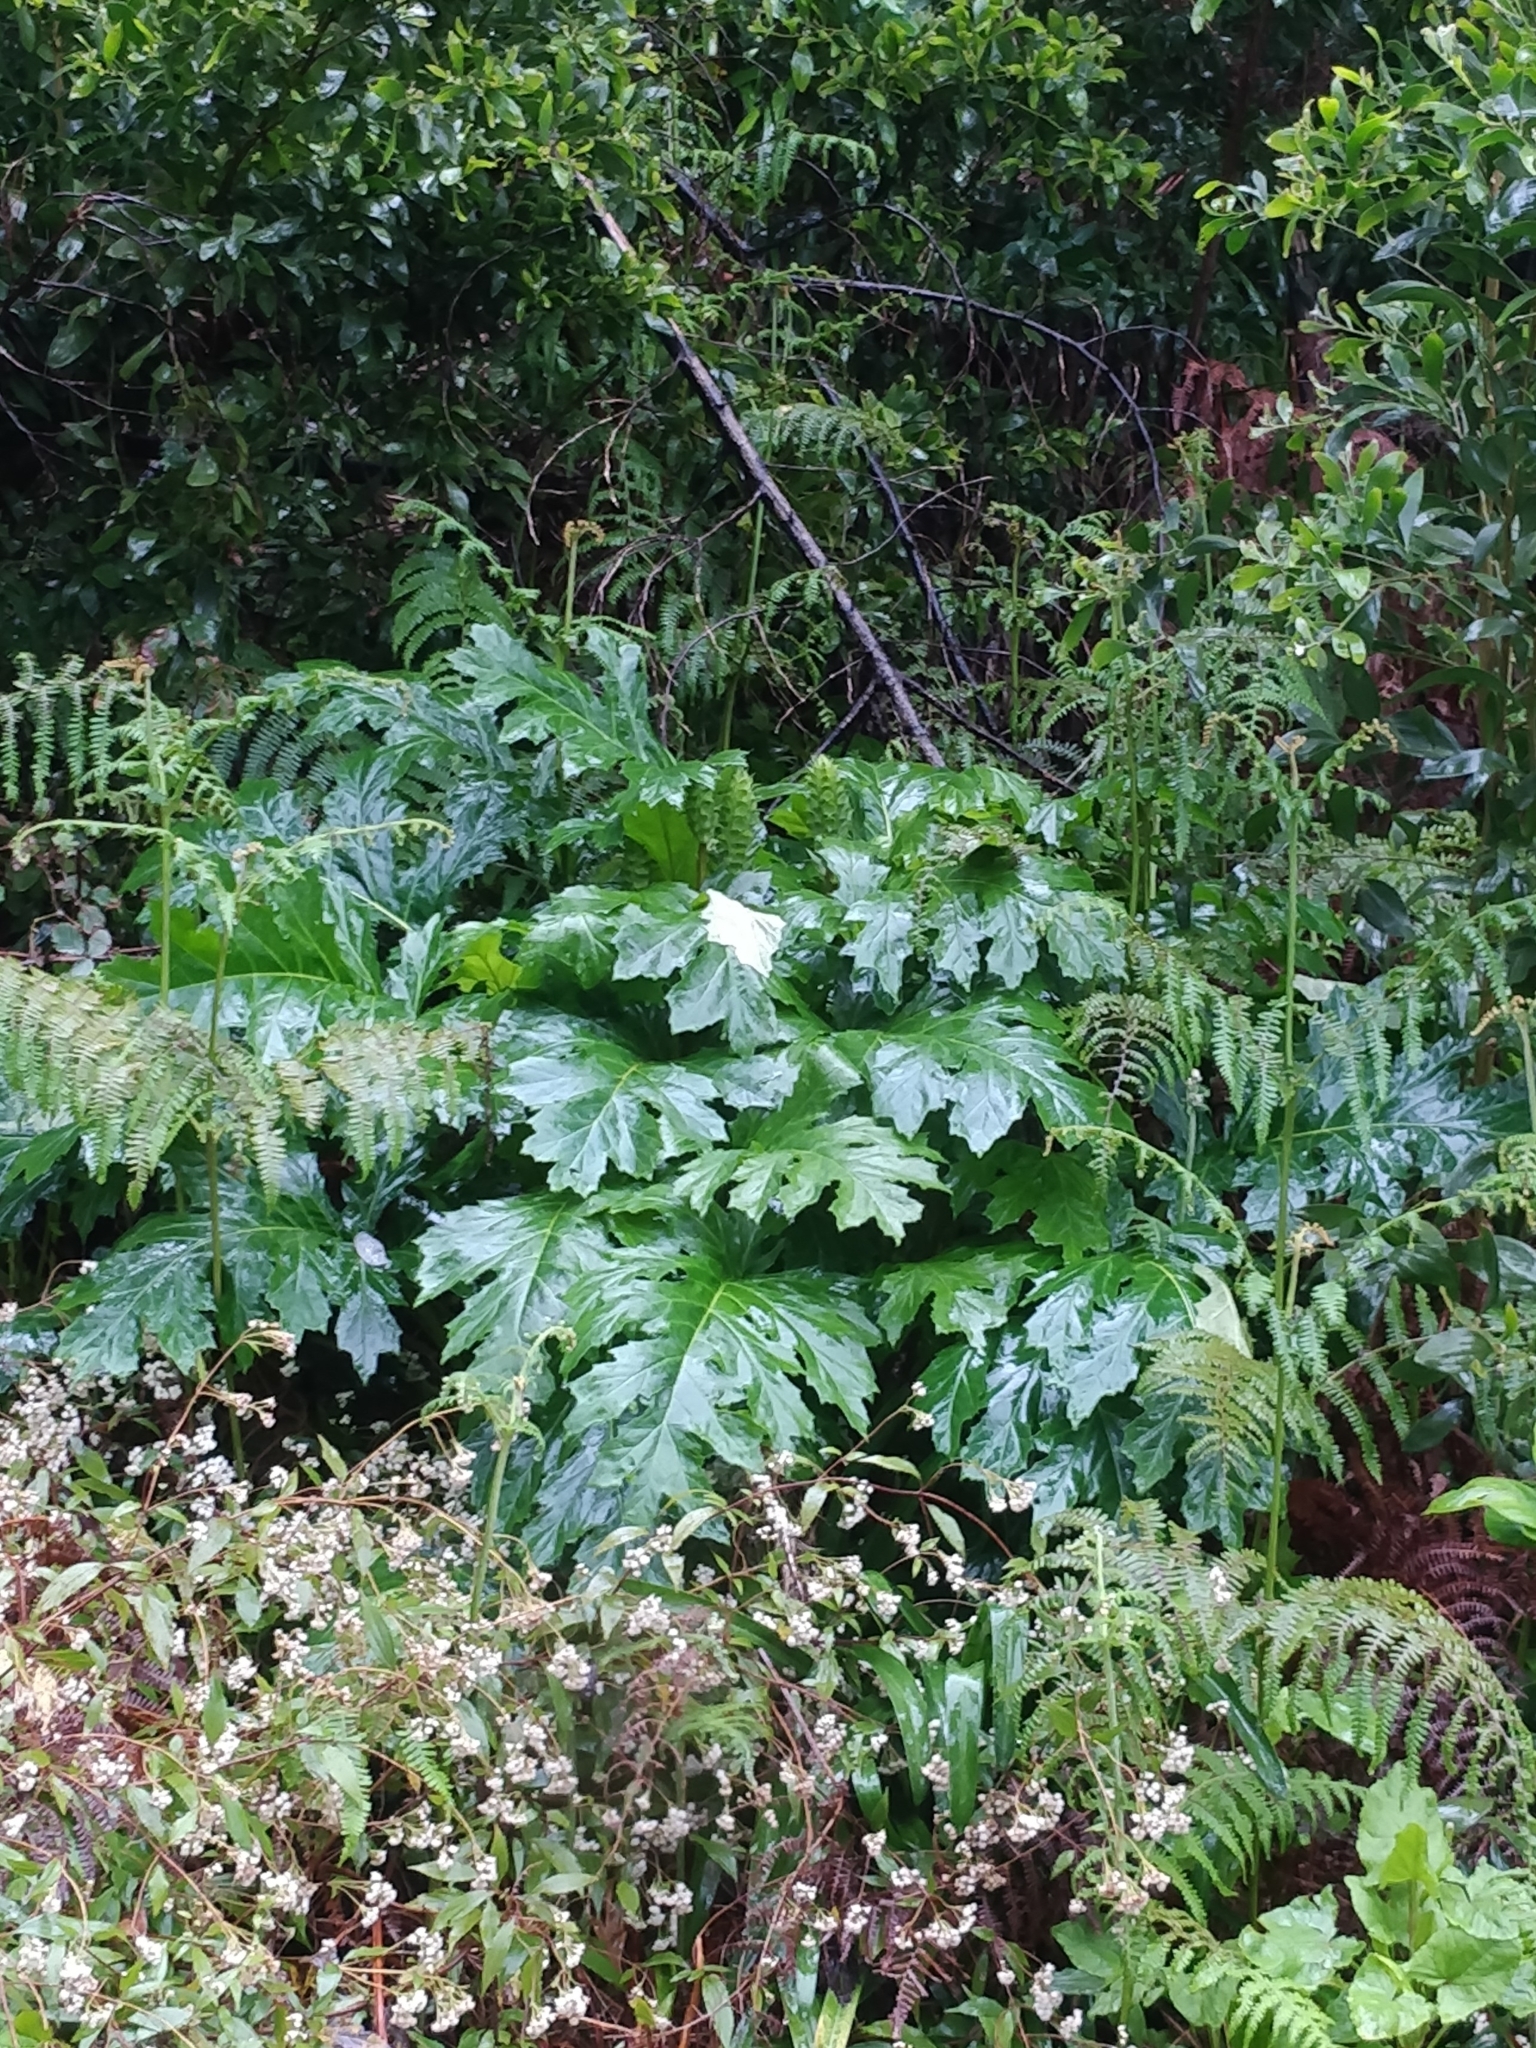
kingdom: Plantae
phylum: Tracheophyta
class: Magnoliopsida
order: Lamiales
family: Acanthaceae
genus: Acanthus
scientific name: Acanthus mollis
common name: Bear's-breech
